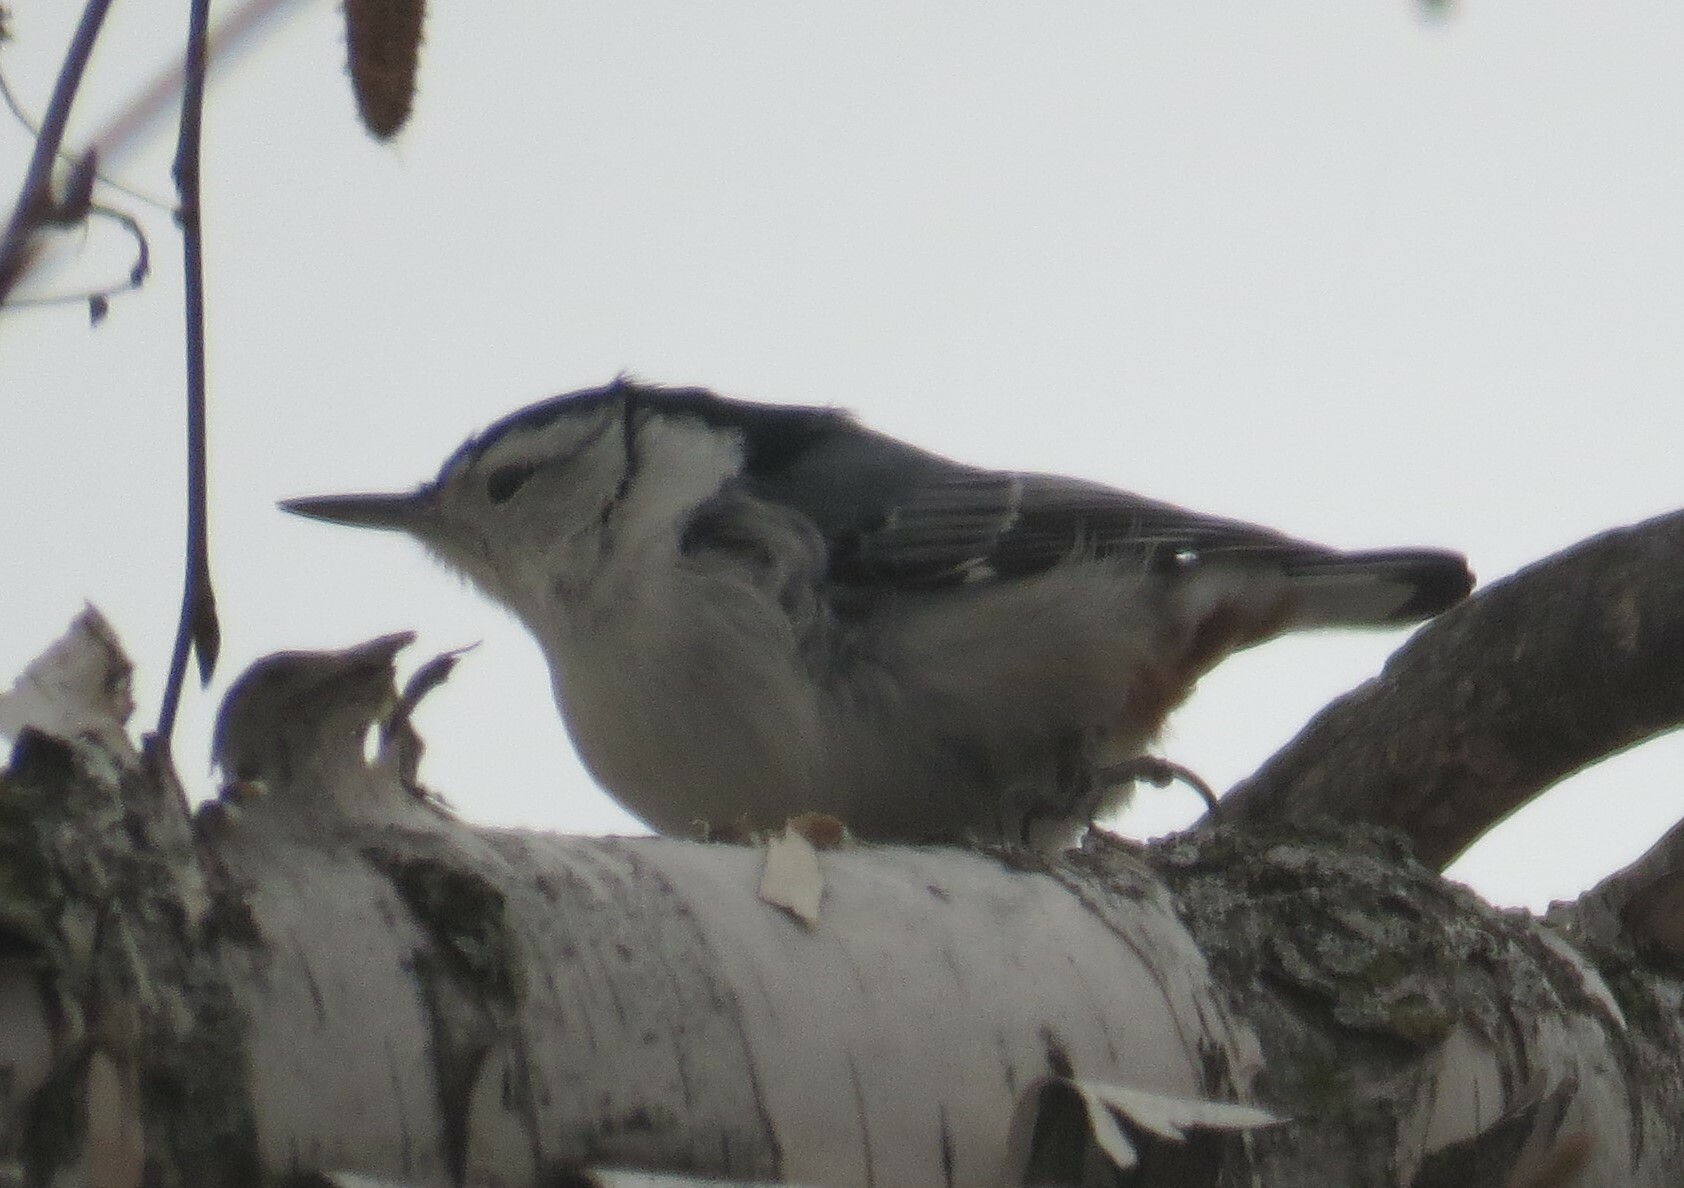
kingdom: Animalia
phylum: Chordata
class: Aves
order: Passeriformes
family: Sittidae
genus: Sitta
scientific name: Sitta carolinensis
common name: White-breasted nuthatch
